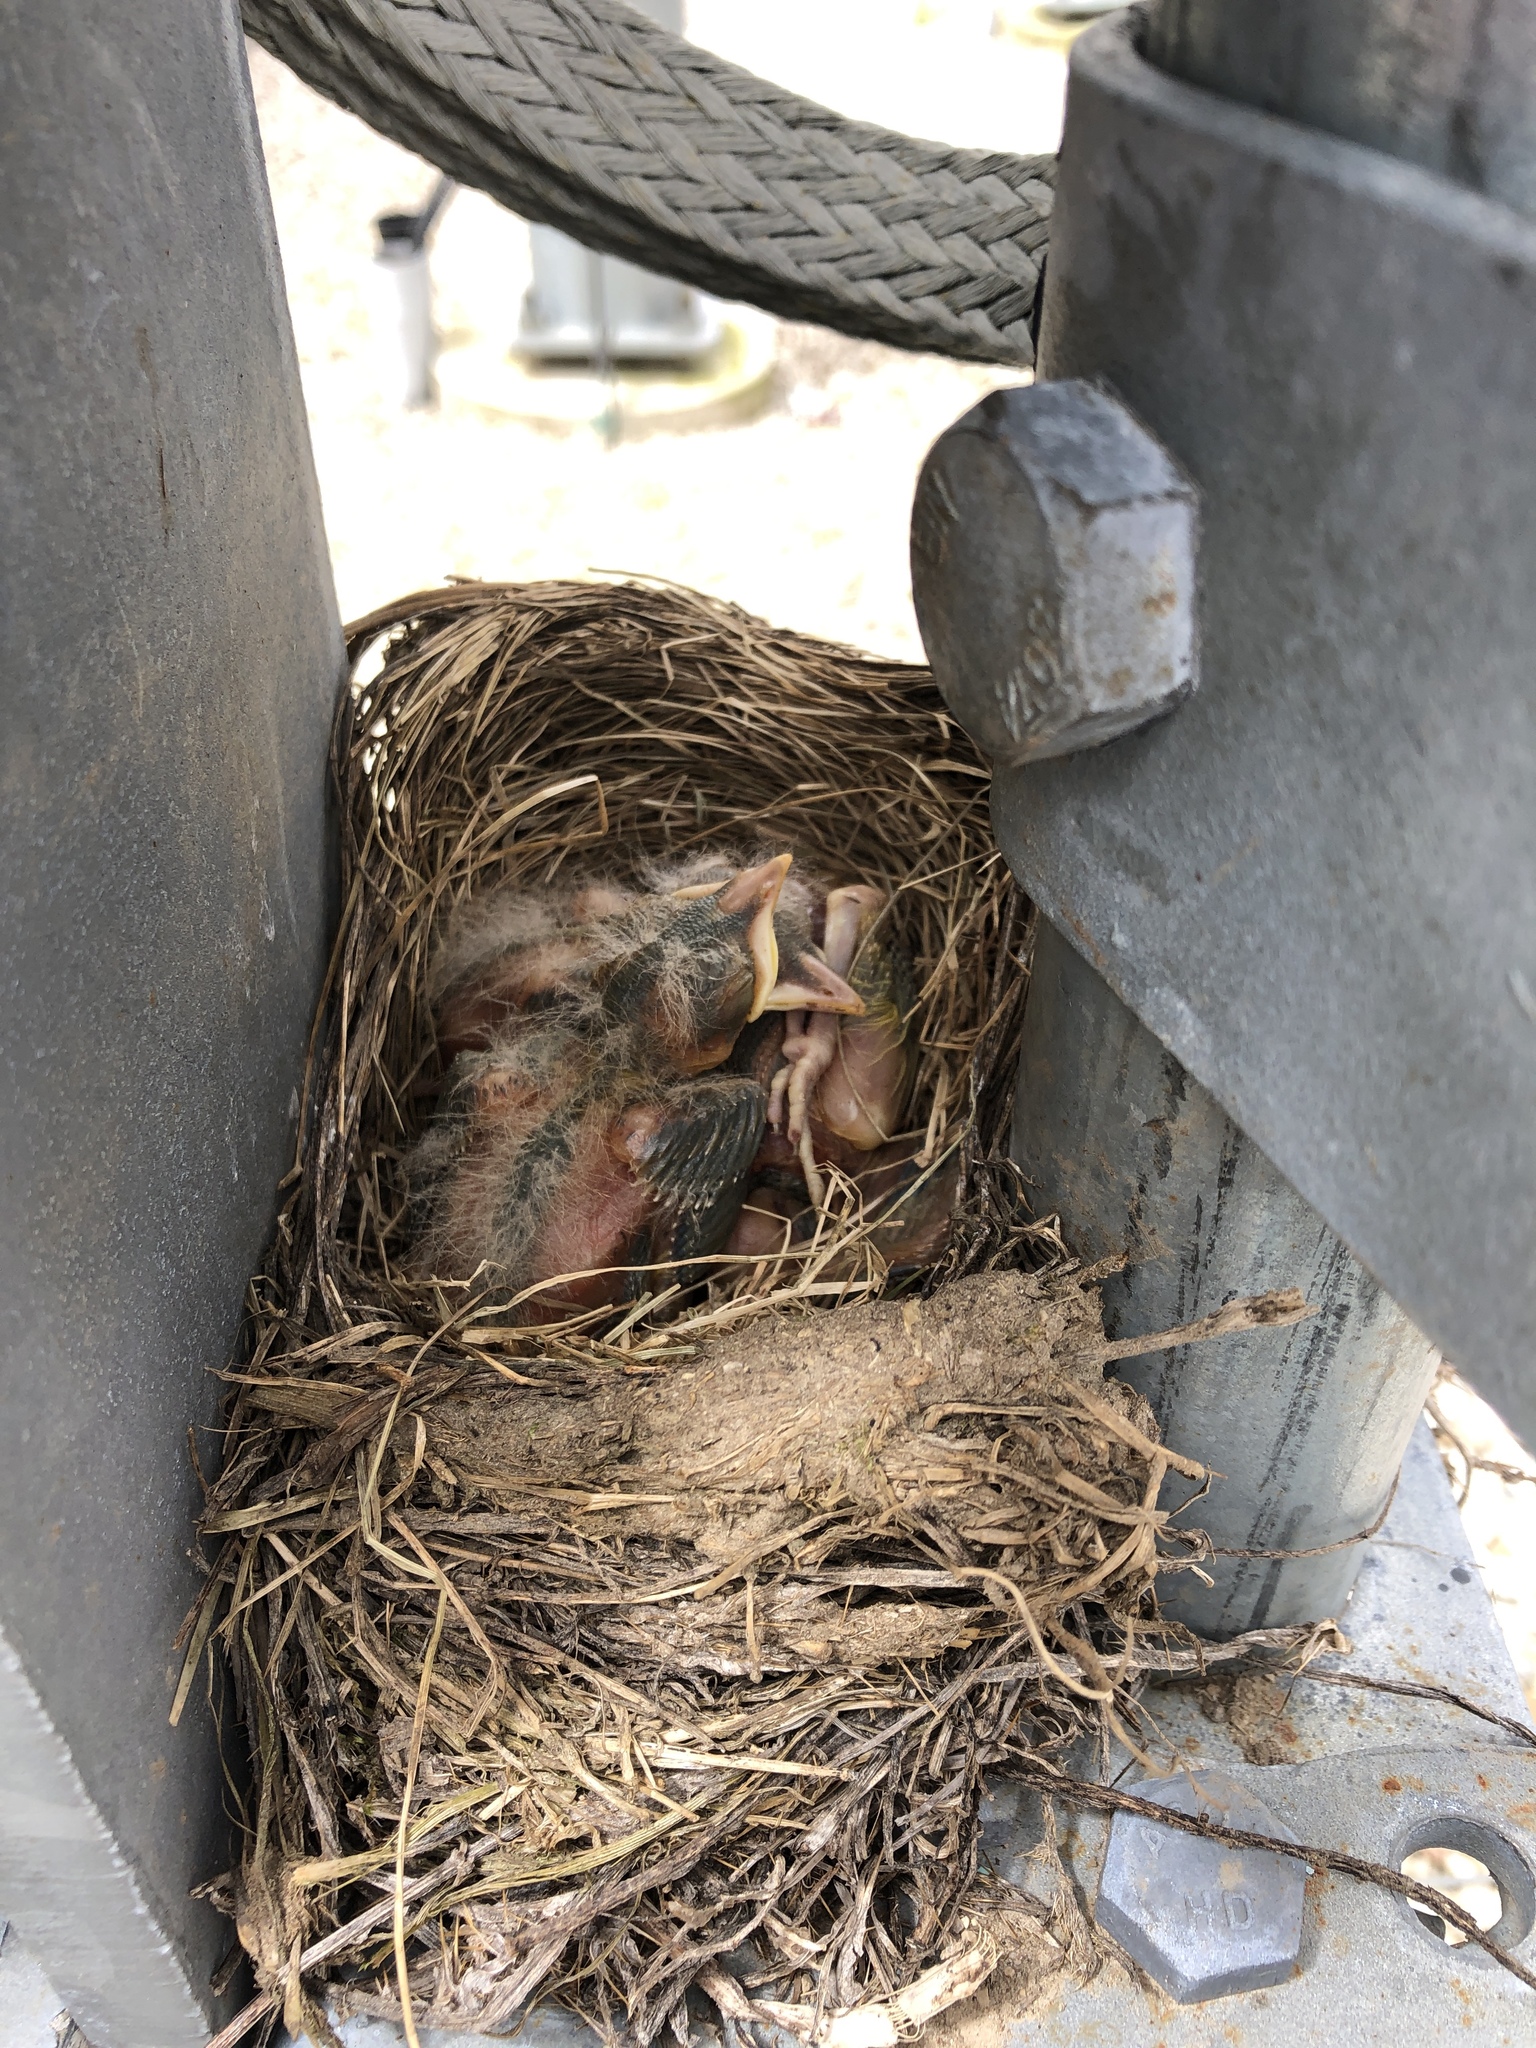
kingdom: Animalia
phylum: Chordata
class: Aves
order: Passeriformes
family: Turdidae
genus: Turdus
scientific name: Turdus migratorius
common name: American robin
